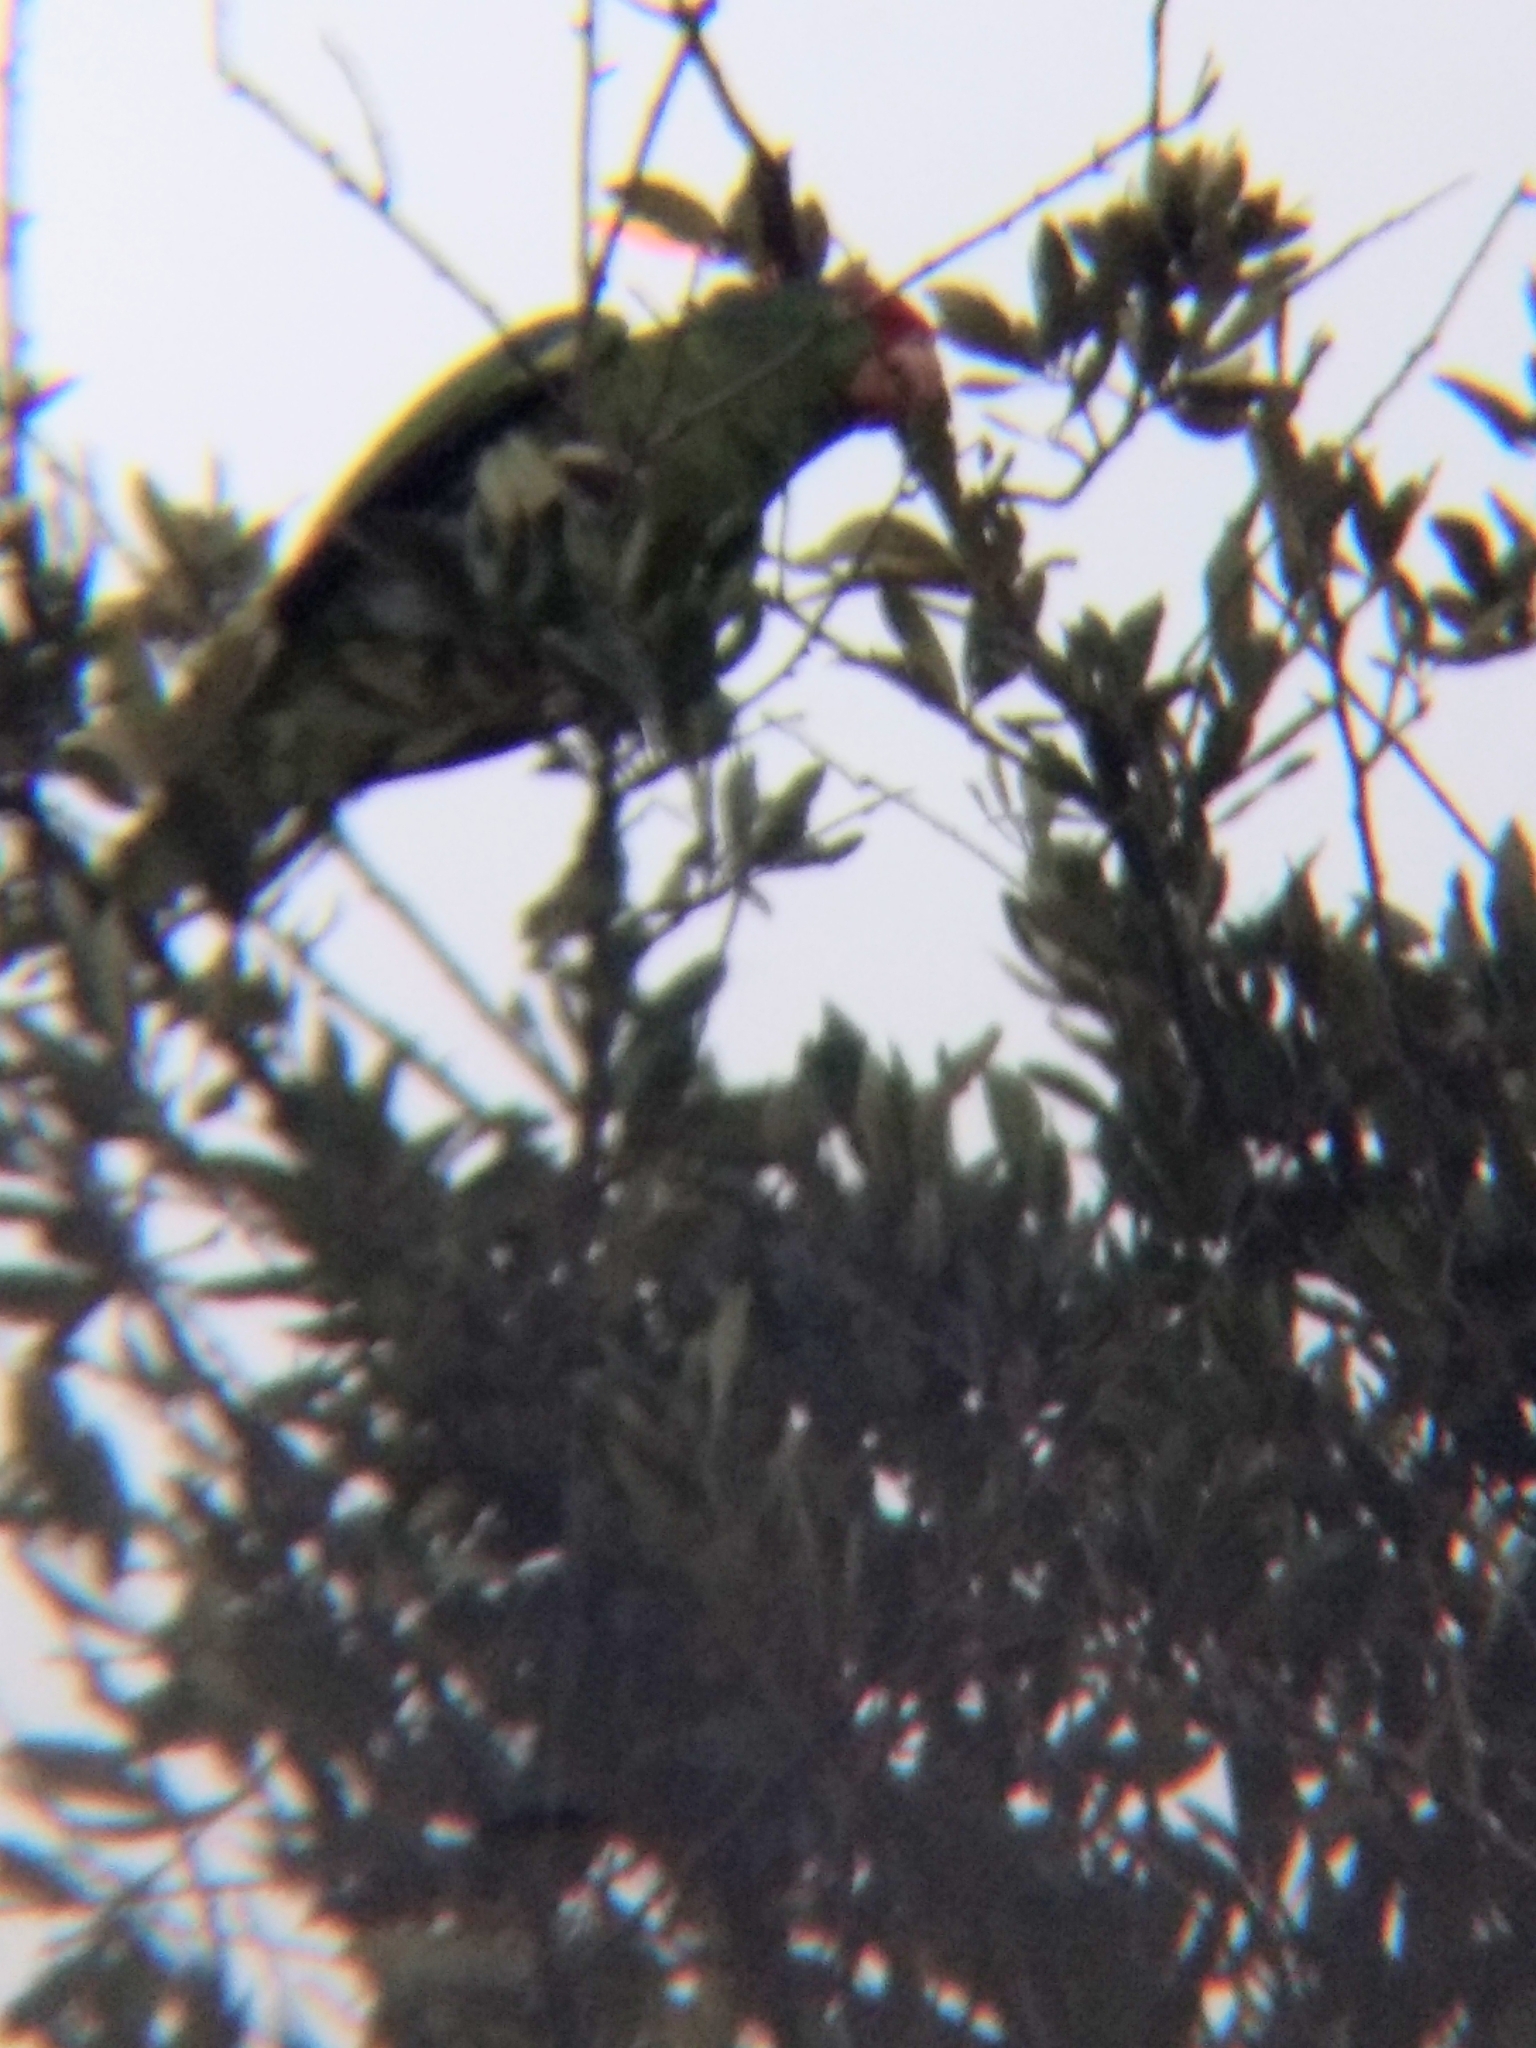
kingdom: Animalia
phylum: Chordata
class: Aves
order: Psittaciformes
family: Psittacidae
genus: Amazona
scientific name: Amazona viridigenalis
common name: Red-crowned amazon
